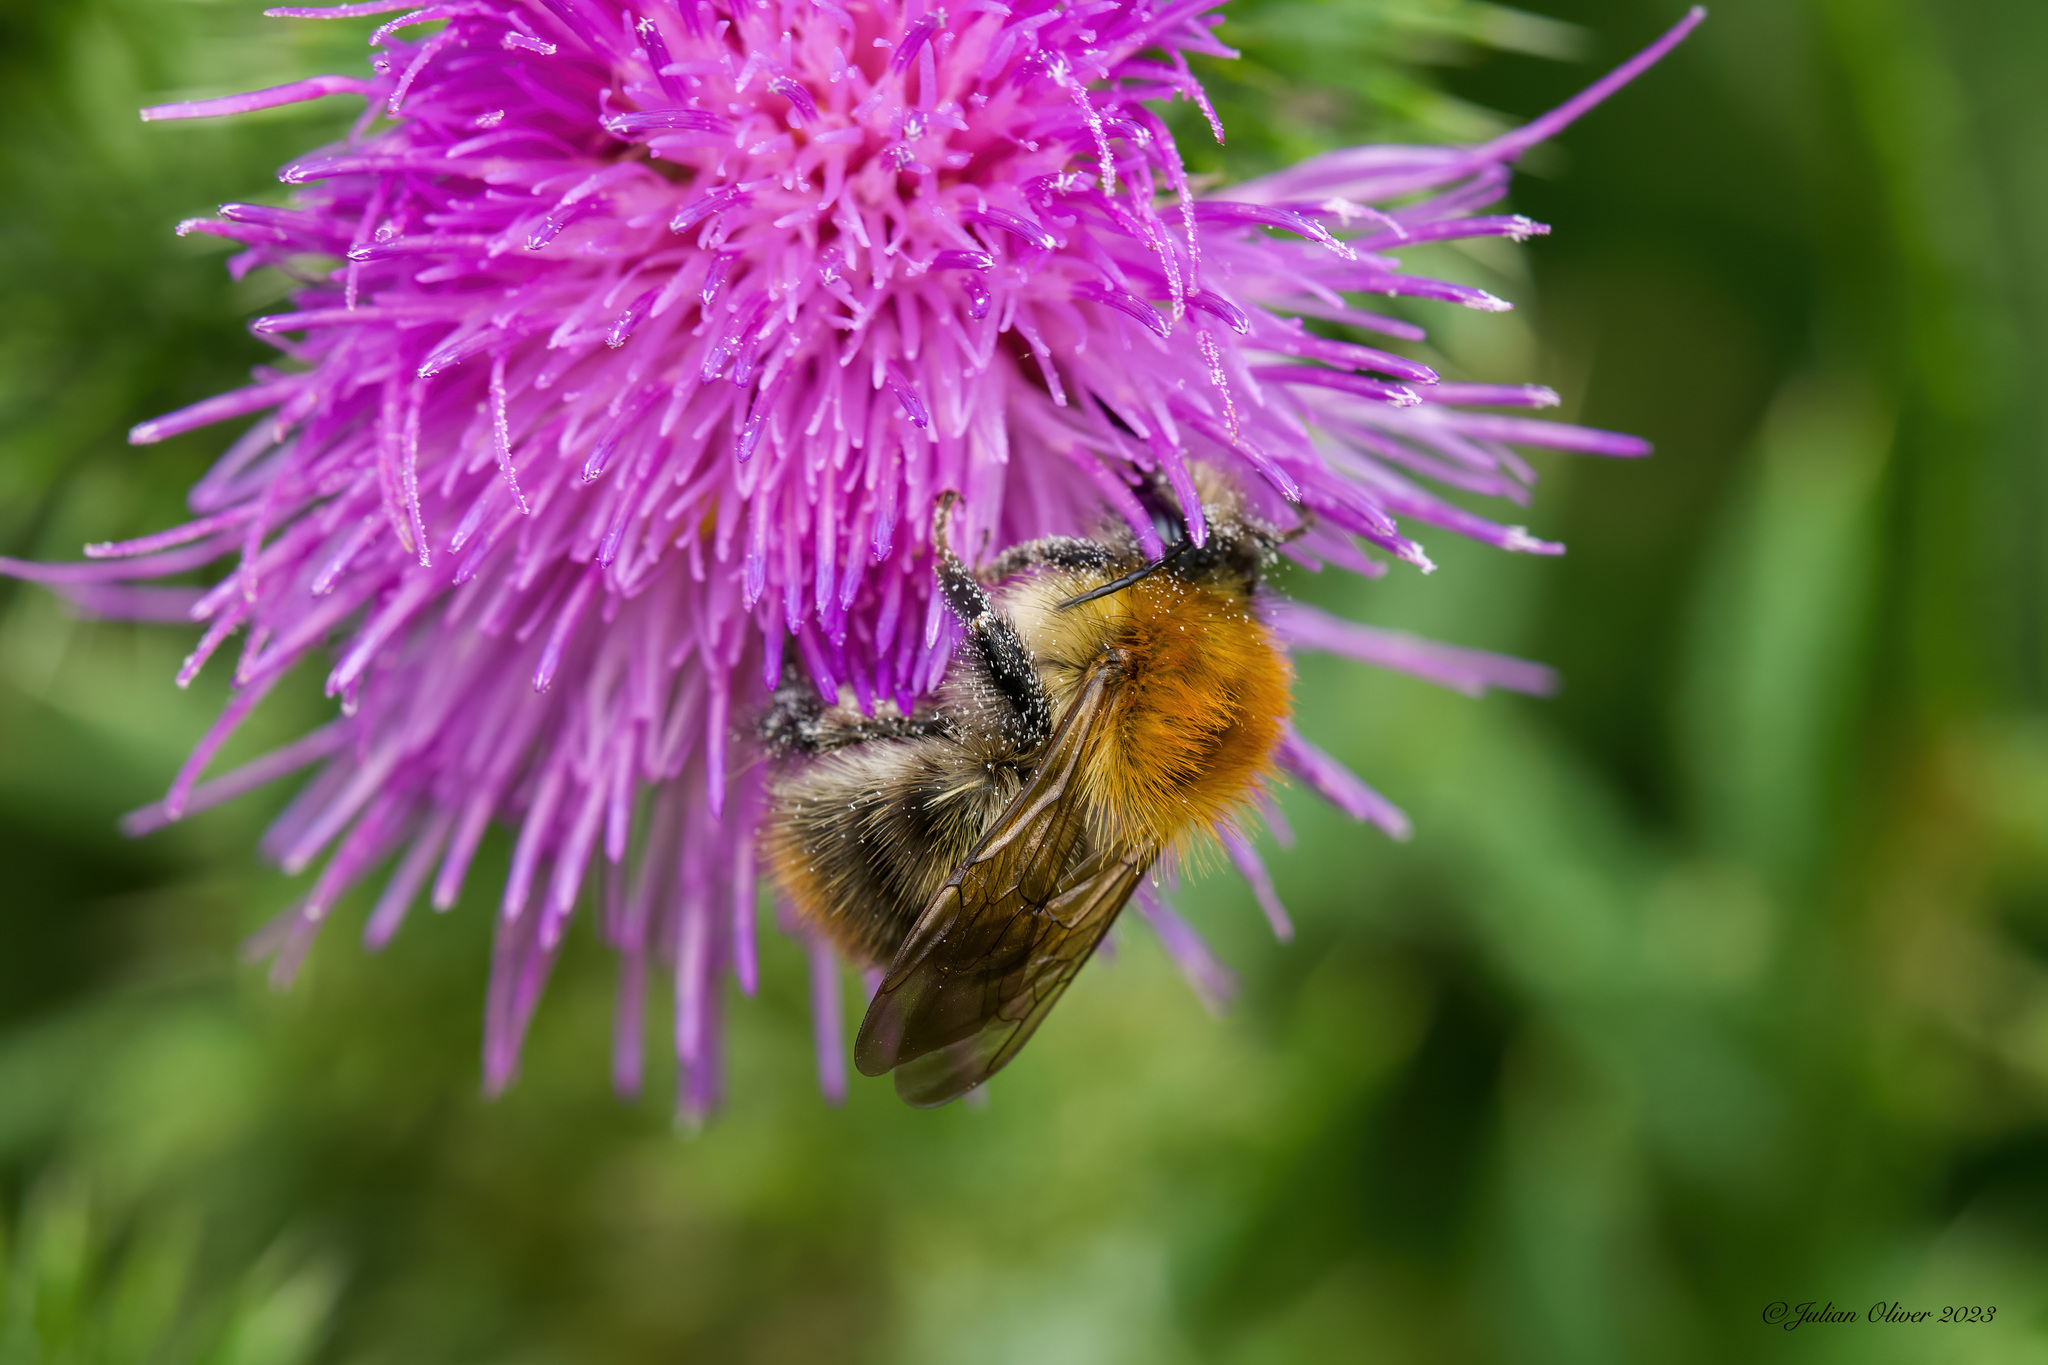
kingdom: Animalia
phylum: Arthropoda
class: Insecta
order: Hymenoptera
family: Apidae
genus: Bombus
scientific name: Bombus pascuorum
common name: Common carder bee
